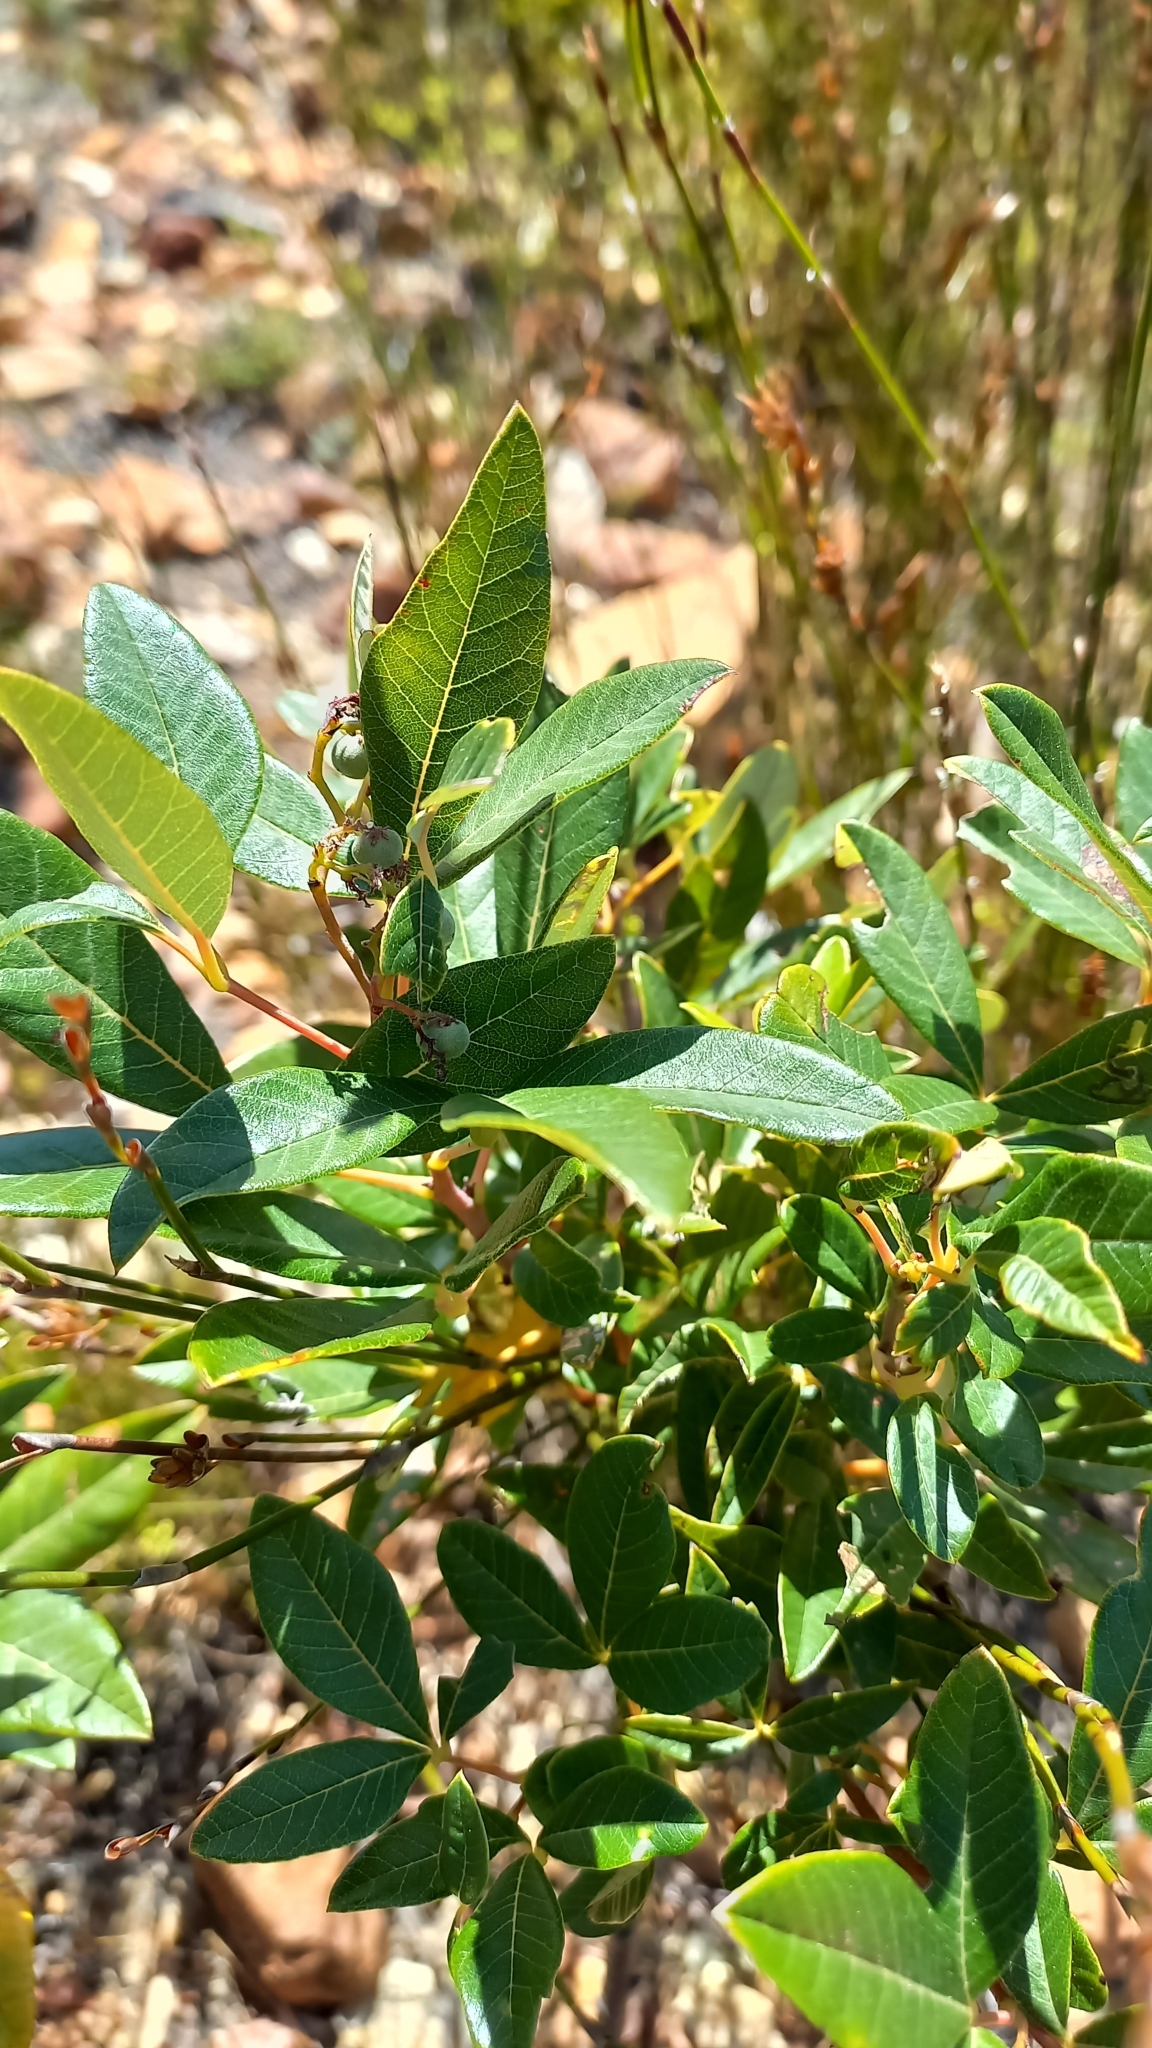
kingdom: Plantae
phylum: Tracheophyta
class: Magnoliopsida
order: Sapindales
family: Anacardiaceae
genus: Searsia
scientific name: Searsia tomentosa
